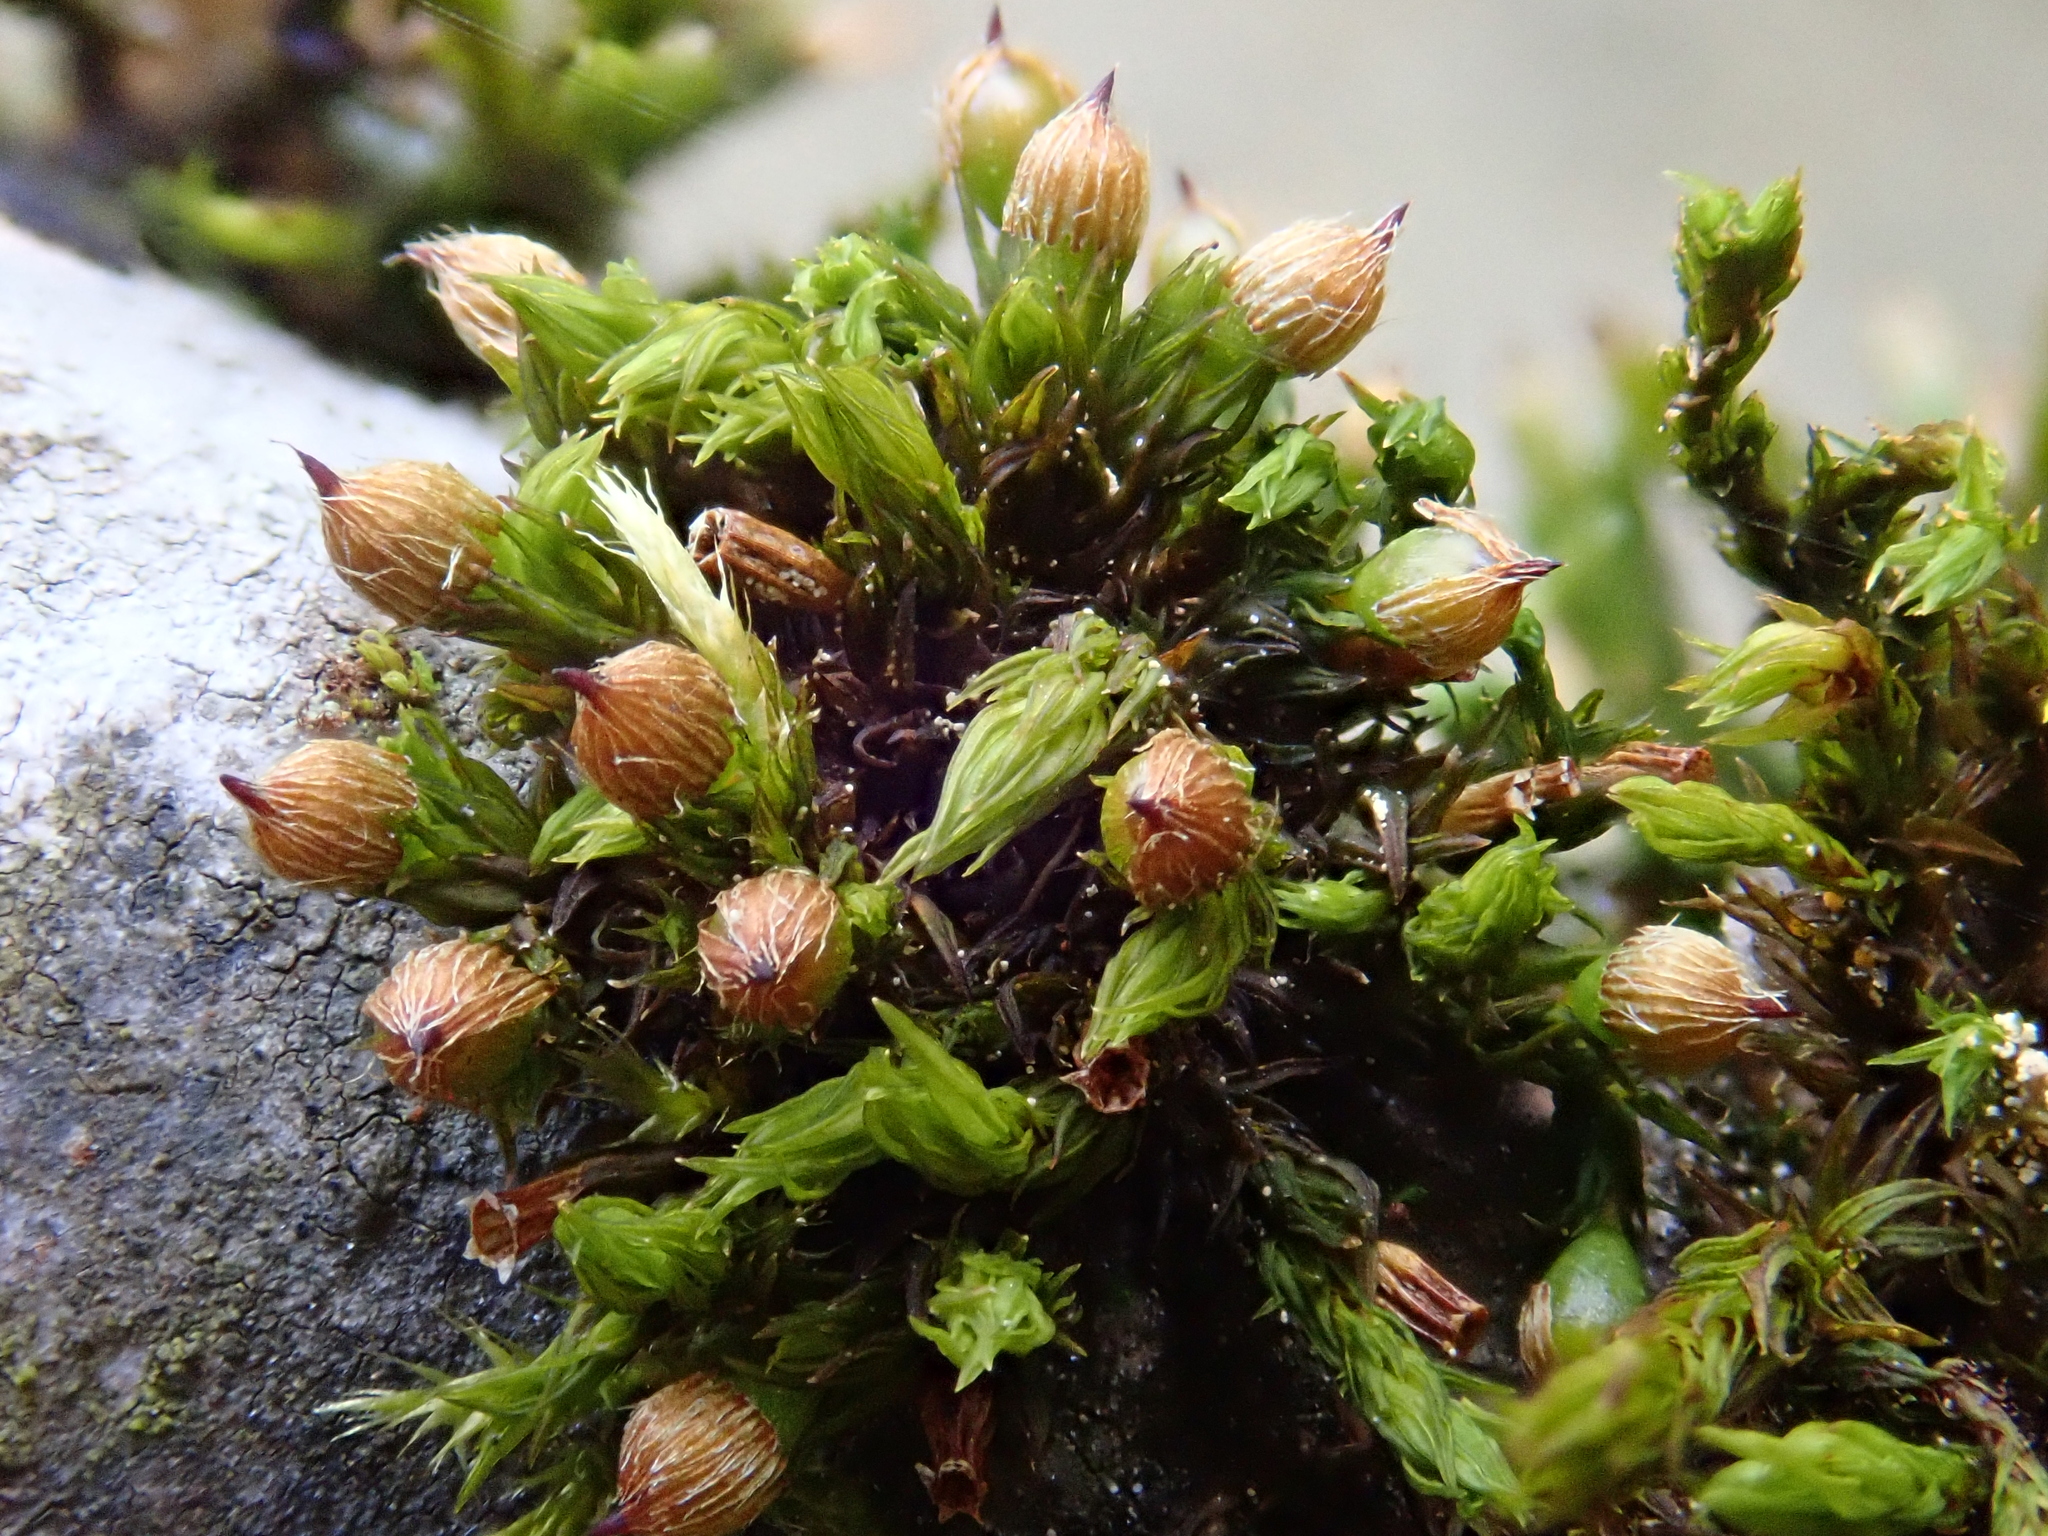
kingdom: Plantae
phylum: Bryophyta
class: Bryopsida
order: Orthotrichales
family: Orthotrichaceae
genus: Orthotrichum
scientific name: Orthotrichum patens
